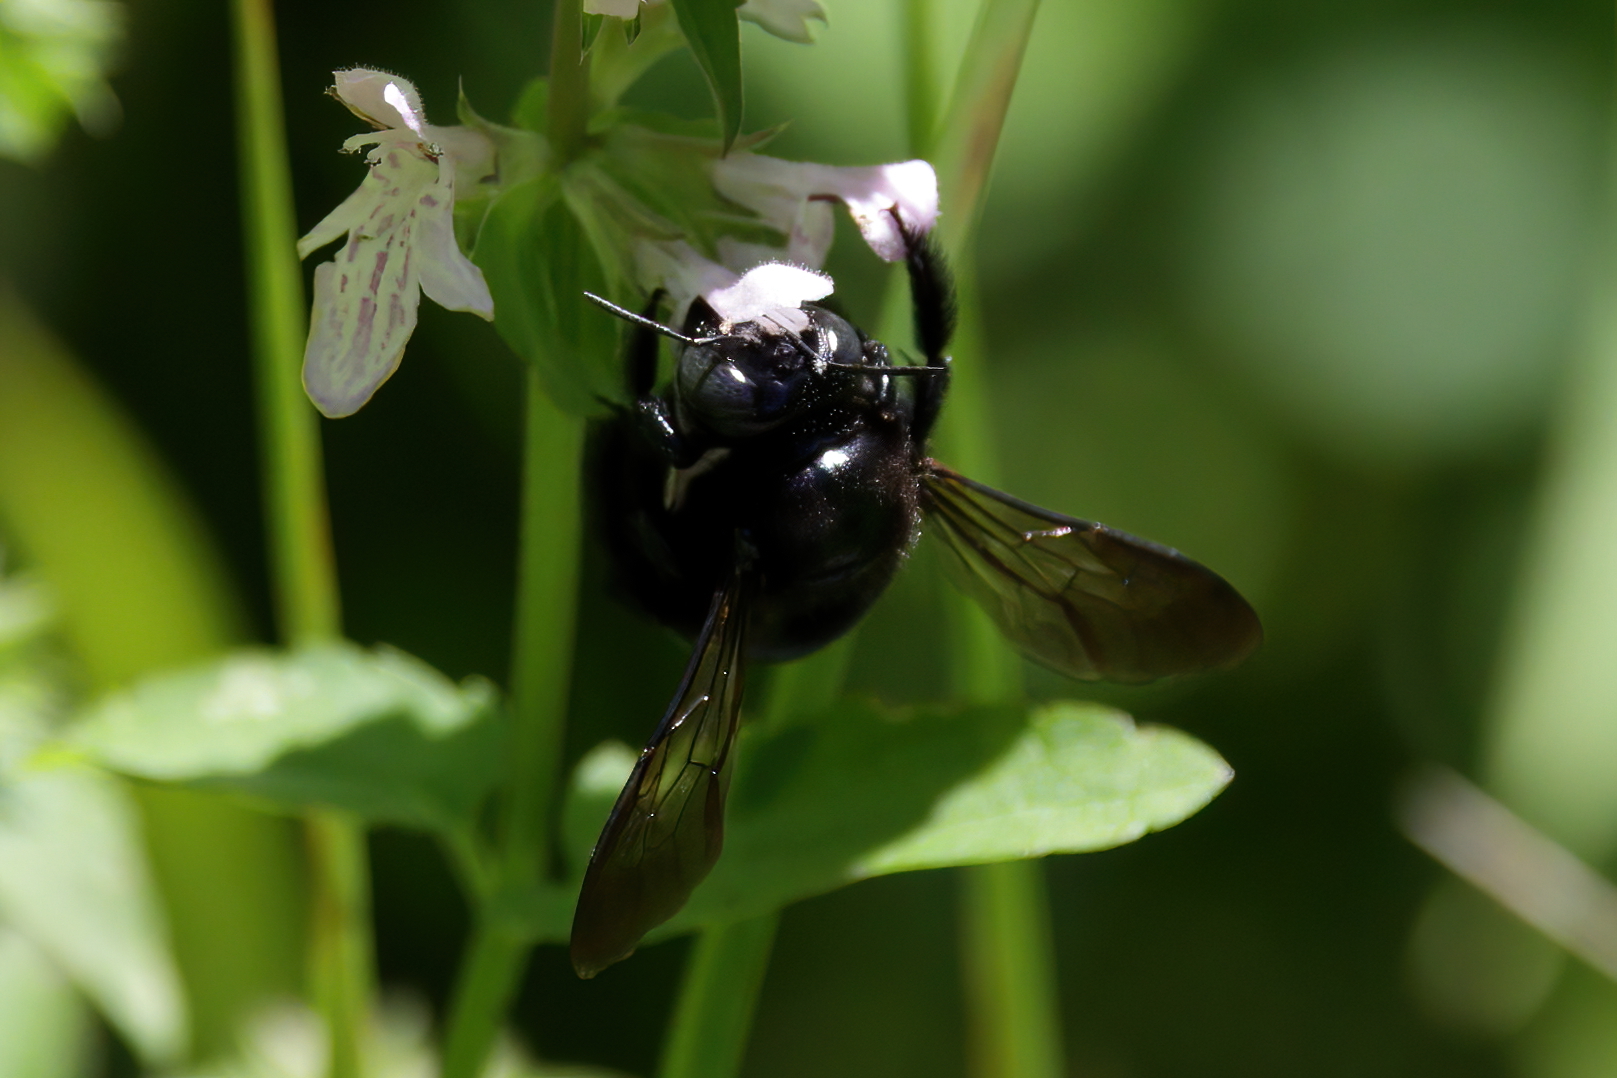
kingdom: Animalia
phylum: Arthropoda
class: Insecta
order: Hymenoptera
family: Apidae
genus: Xylocopa
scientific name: Xylocopa micans
